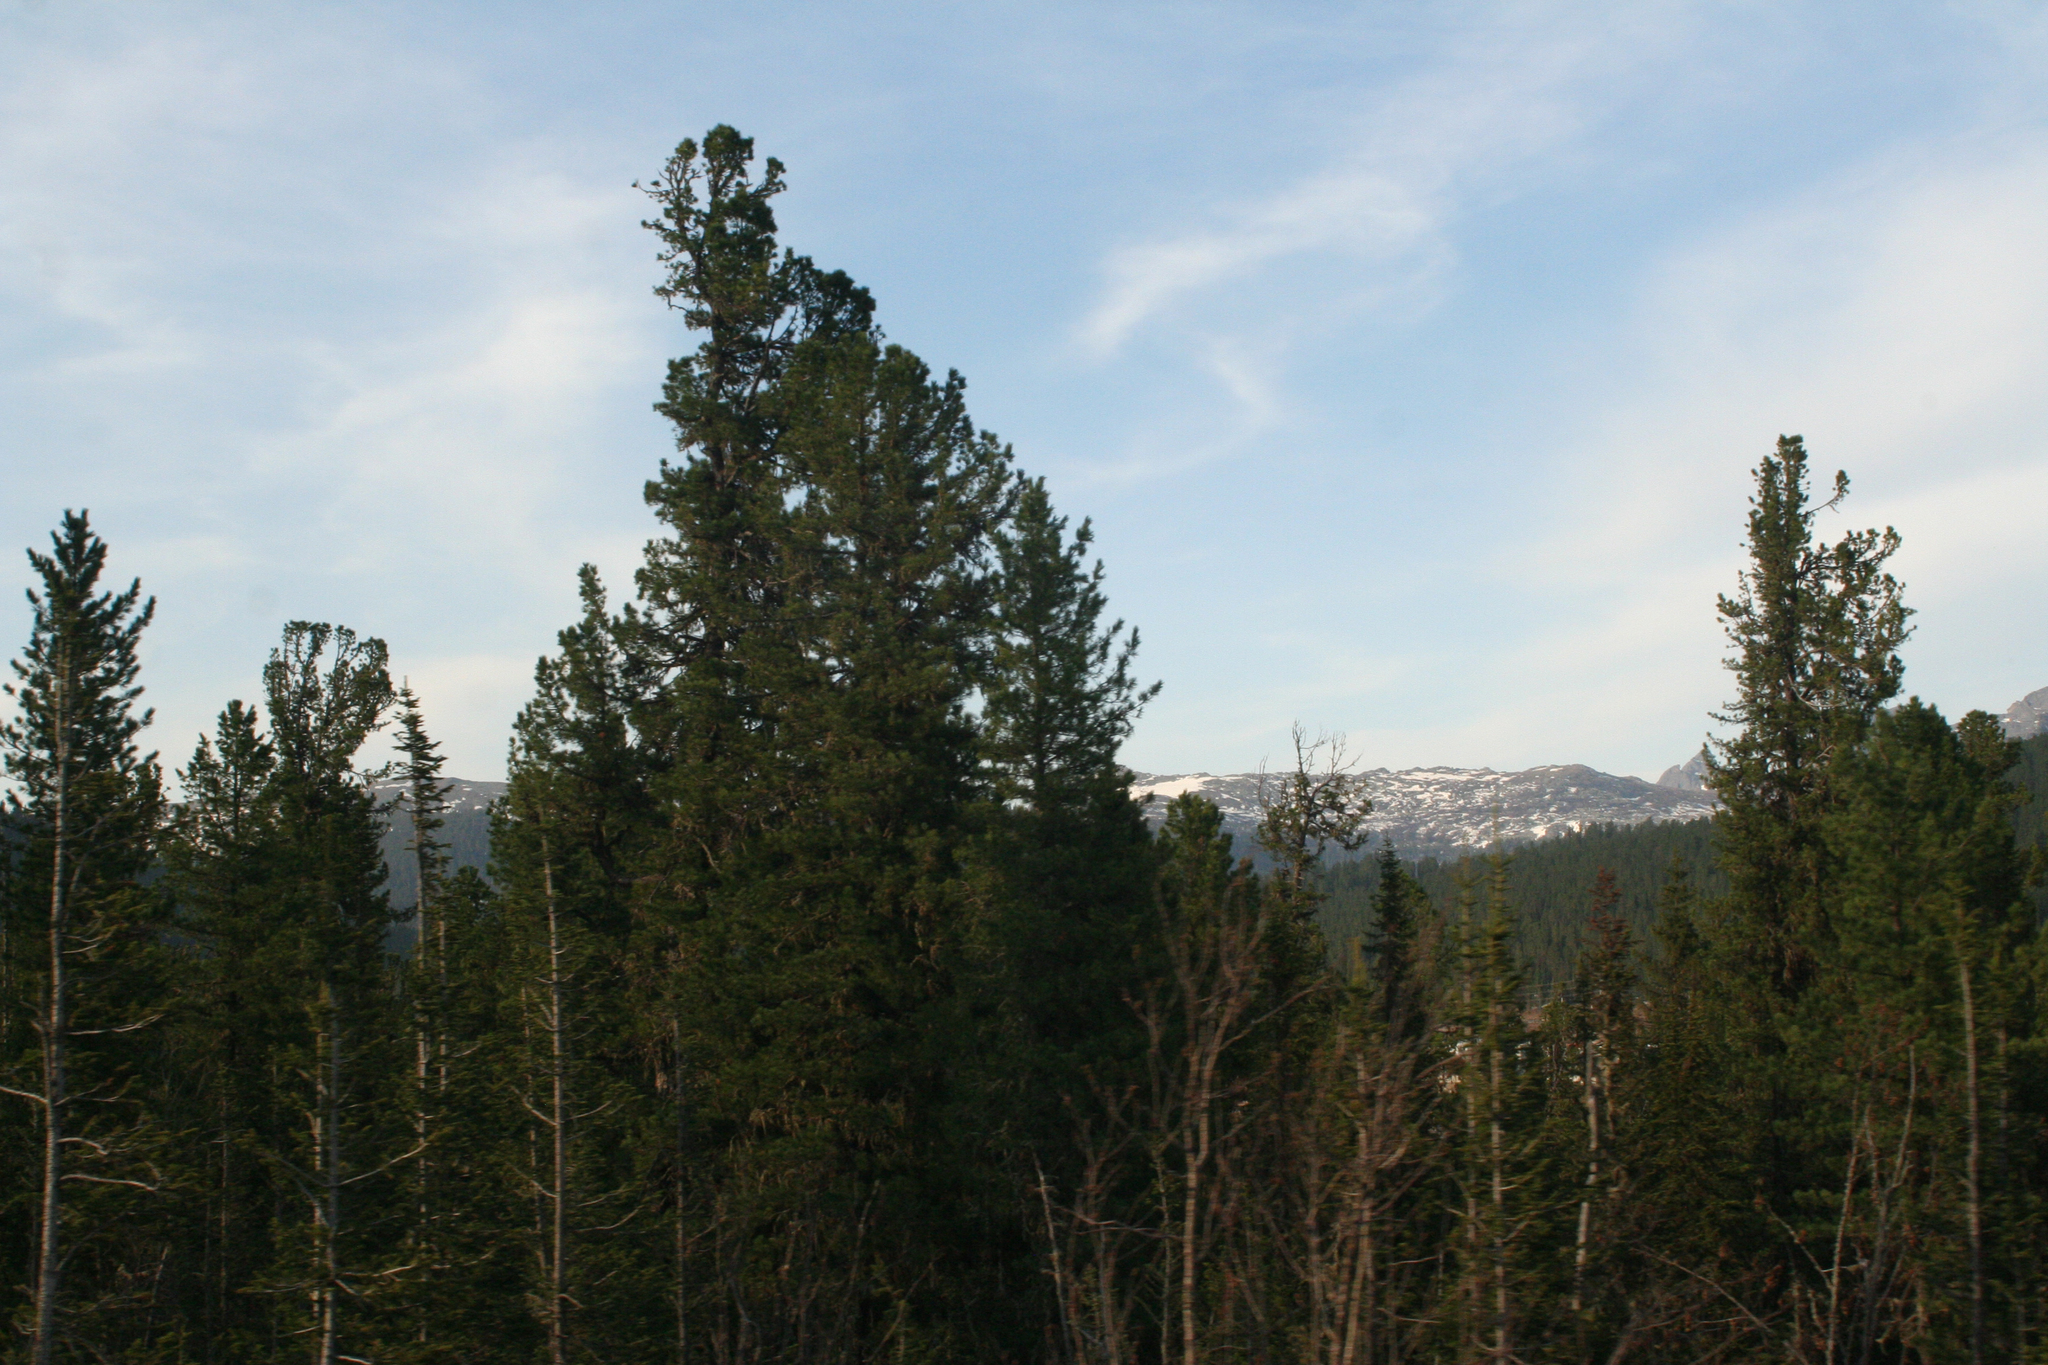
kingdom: Plantae
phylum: Tracheophyta
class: Pinopsida
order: Pinales
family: Pinaceae
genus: Abies
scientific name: Abies sibirica
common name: Siberian fir
